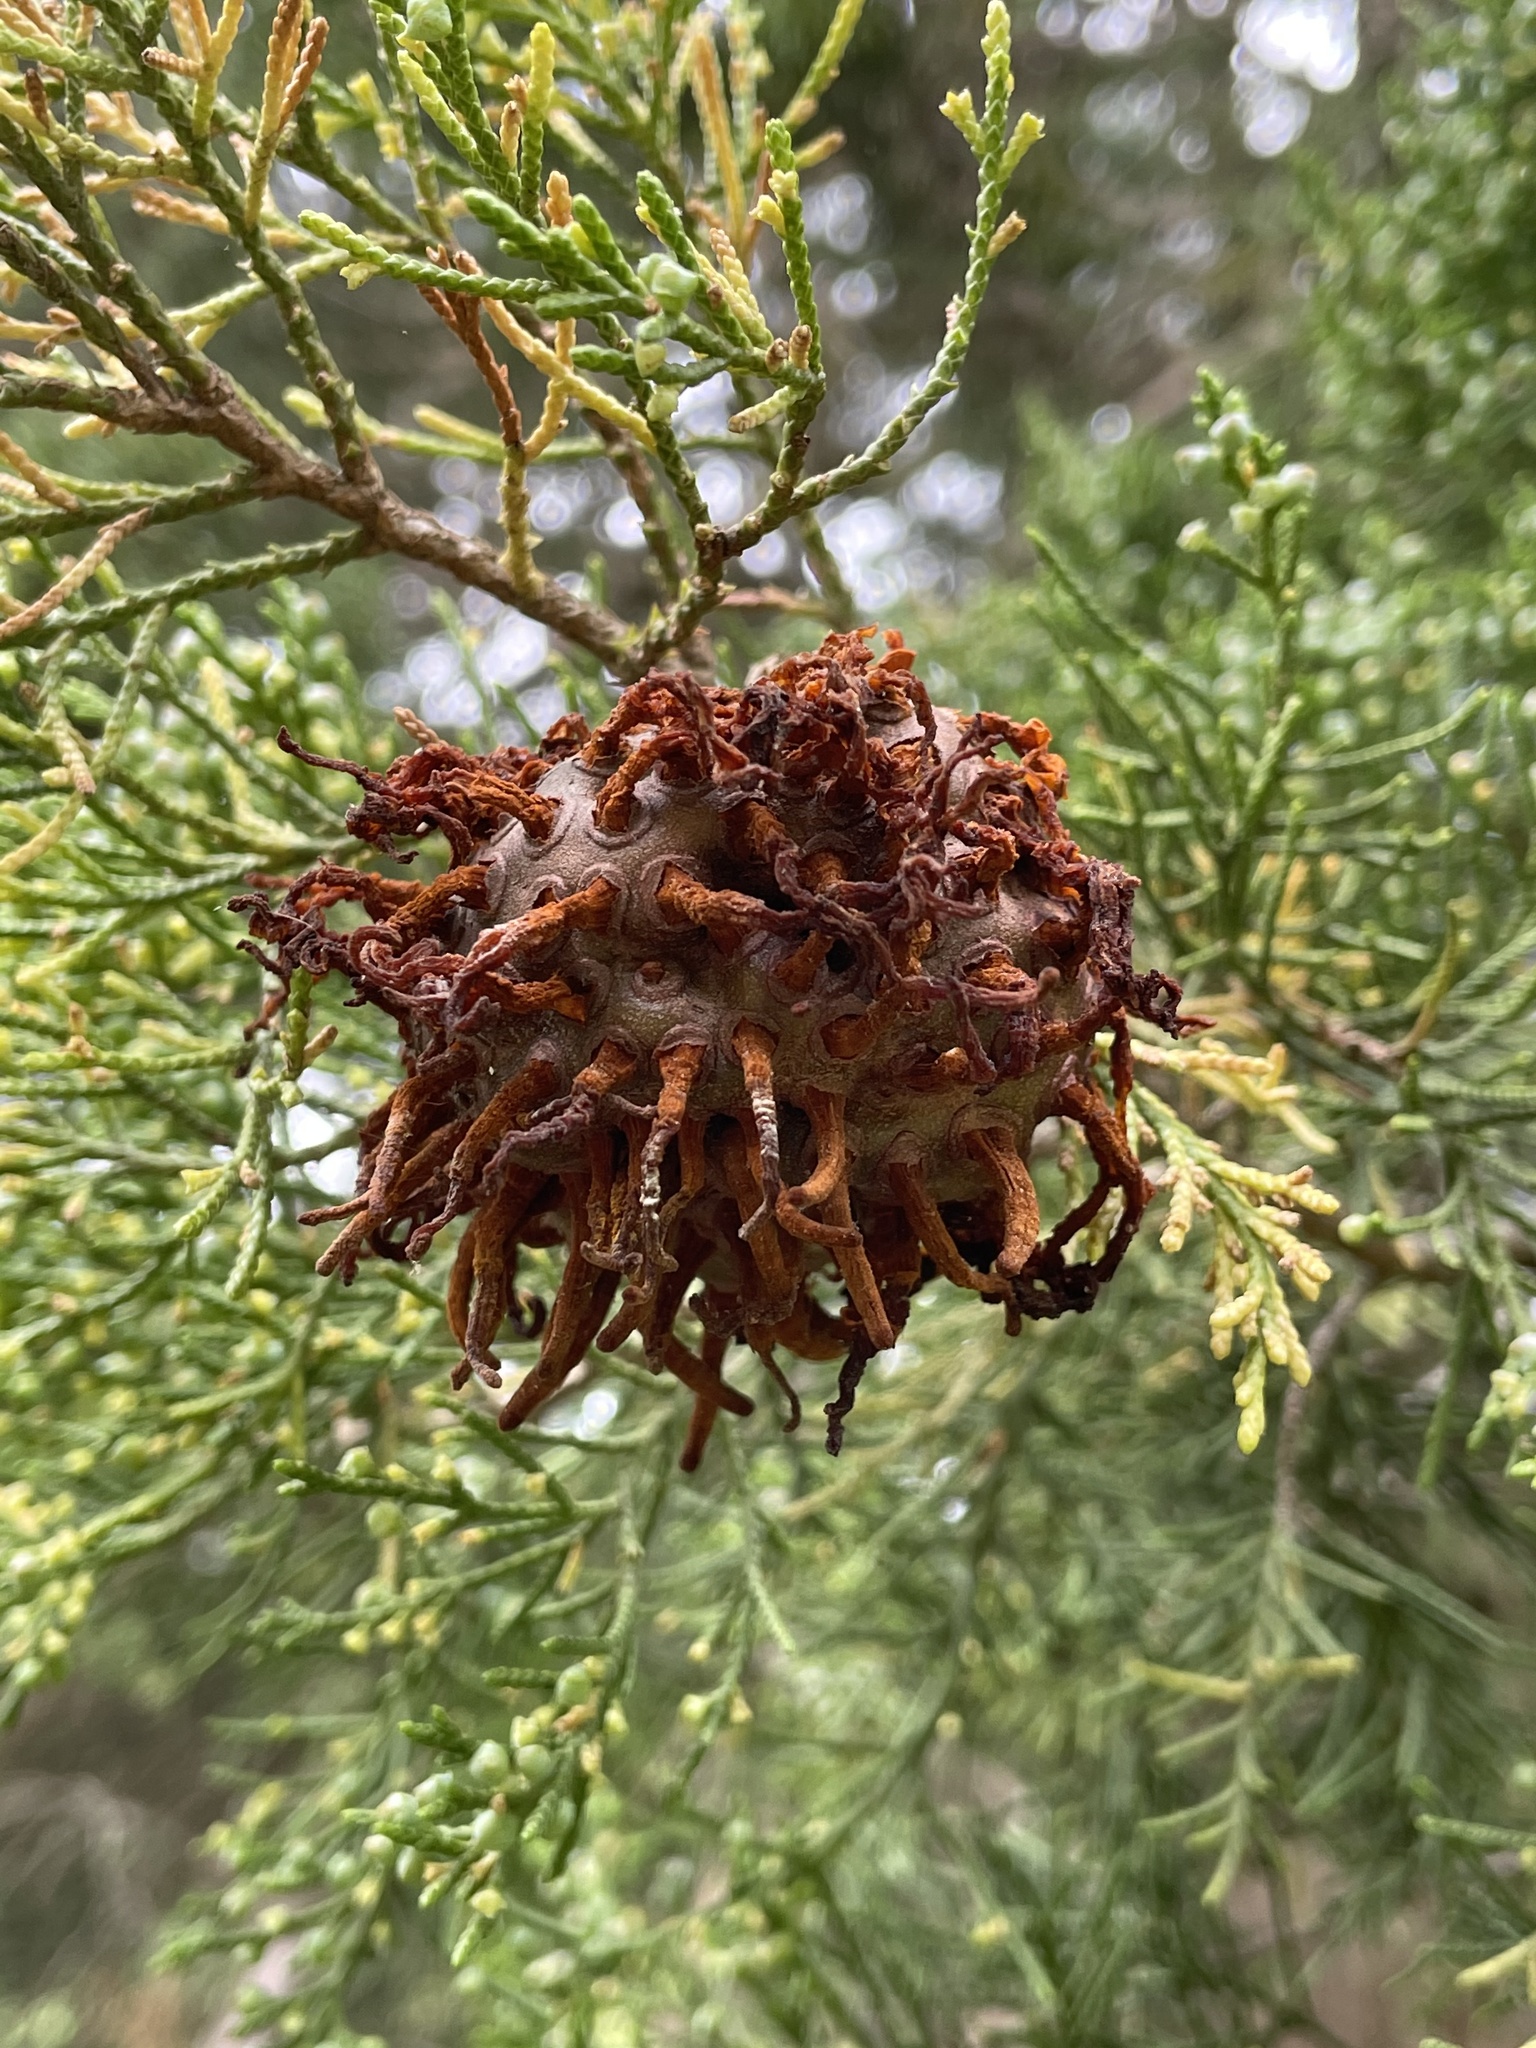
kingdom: Fungi
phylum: Basidiomycota
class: Pucciniomycetes
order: Pucciniales
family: Gymnosporangiaceae
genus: Gymnosporangium
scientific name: Gymnosporangium juniperi-virginianae
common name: Juniper-apple rust
